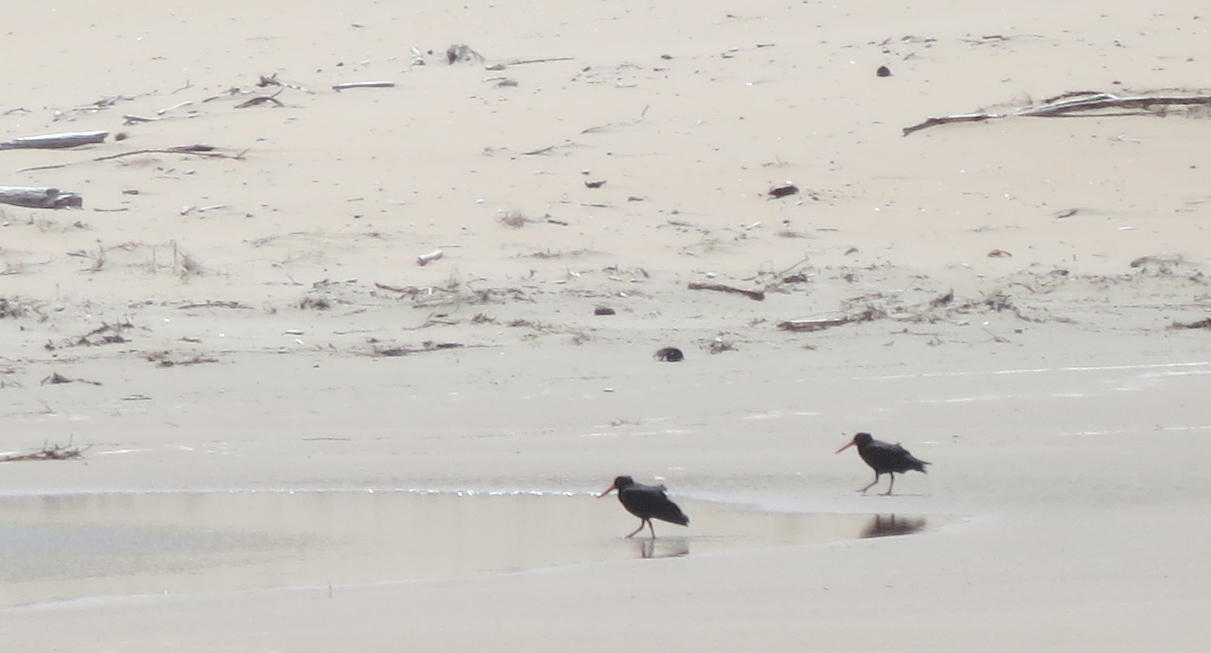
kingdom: Animalia
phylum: Chordata
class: Aves
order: Charadriiformes
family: Haematopodidae
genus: Haematopus
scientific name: Haematopus unicolor
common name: Variable oystercatcher
